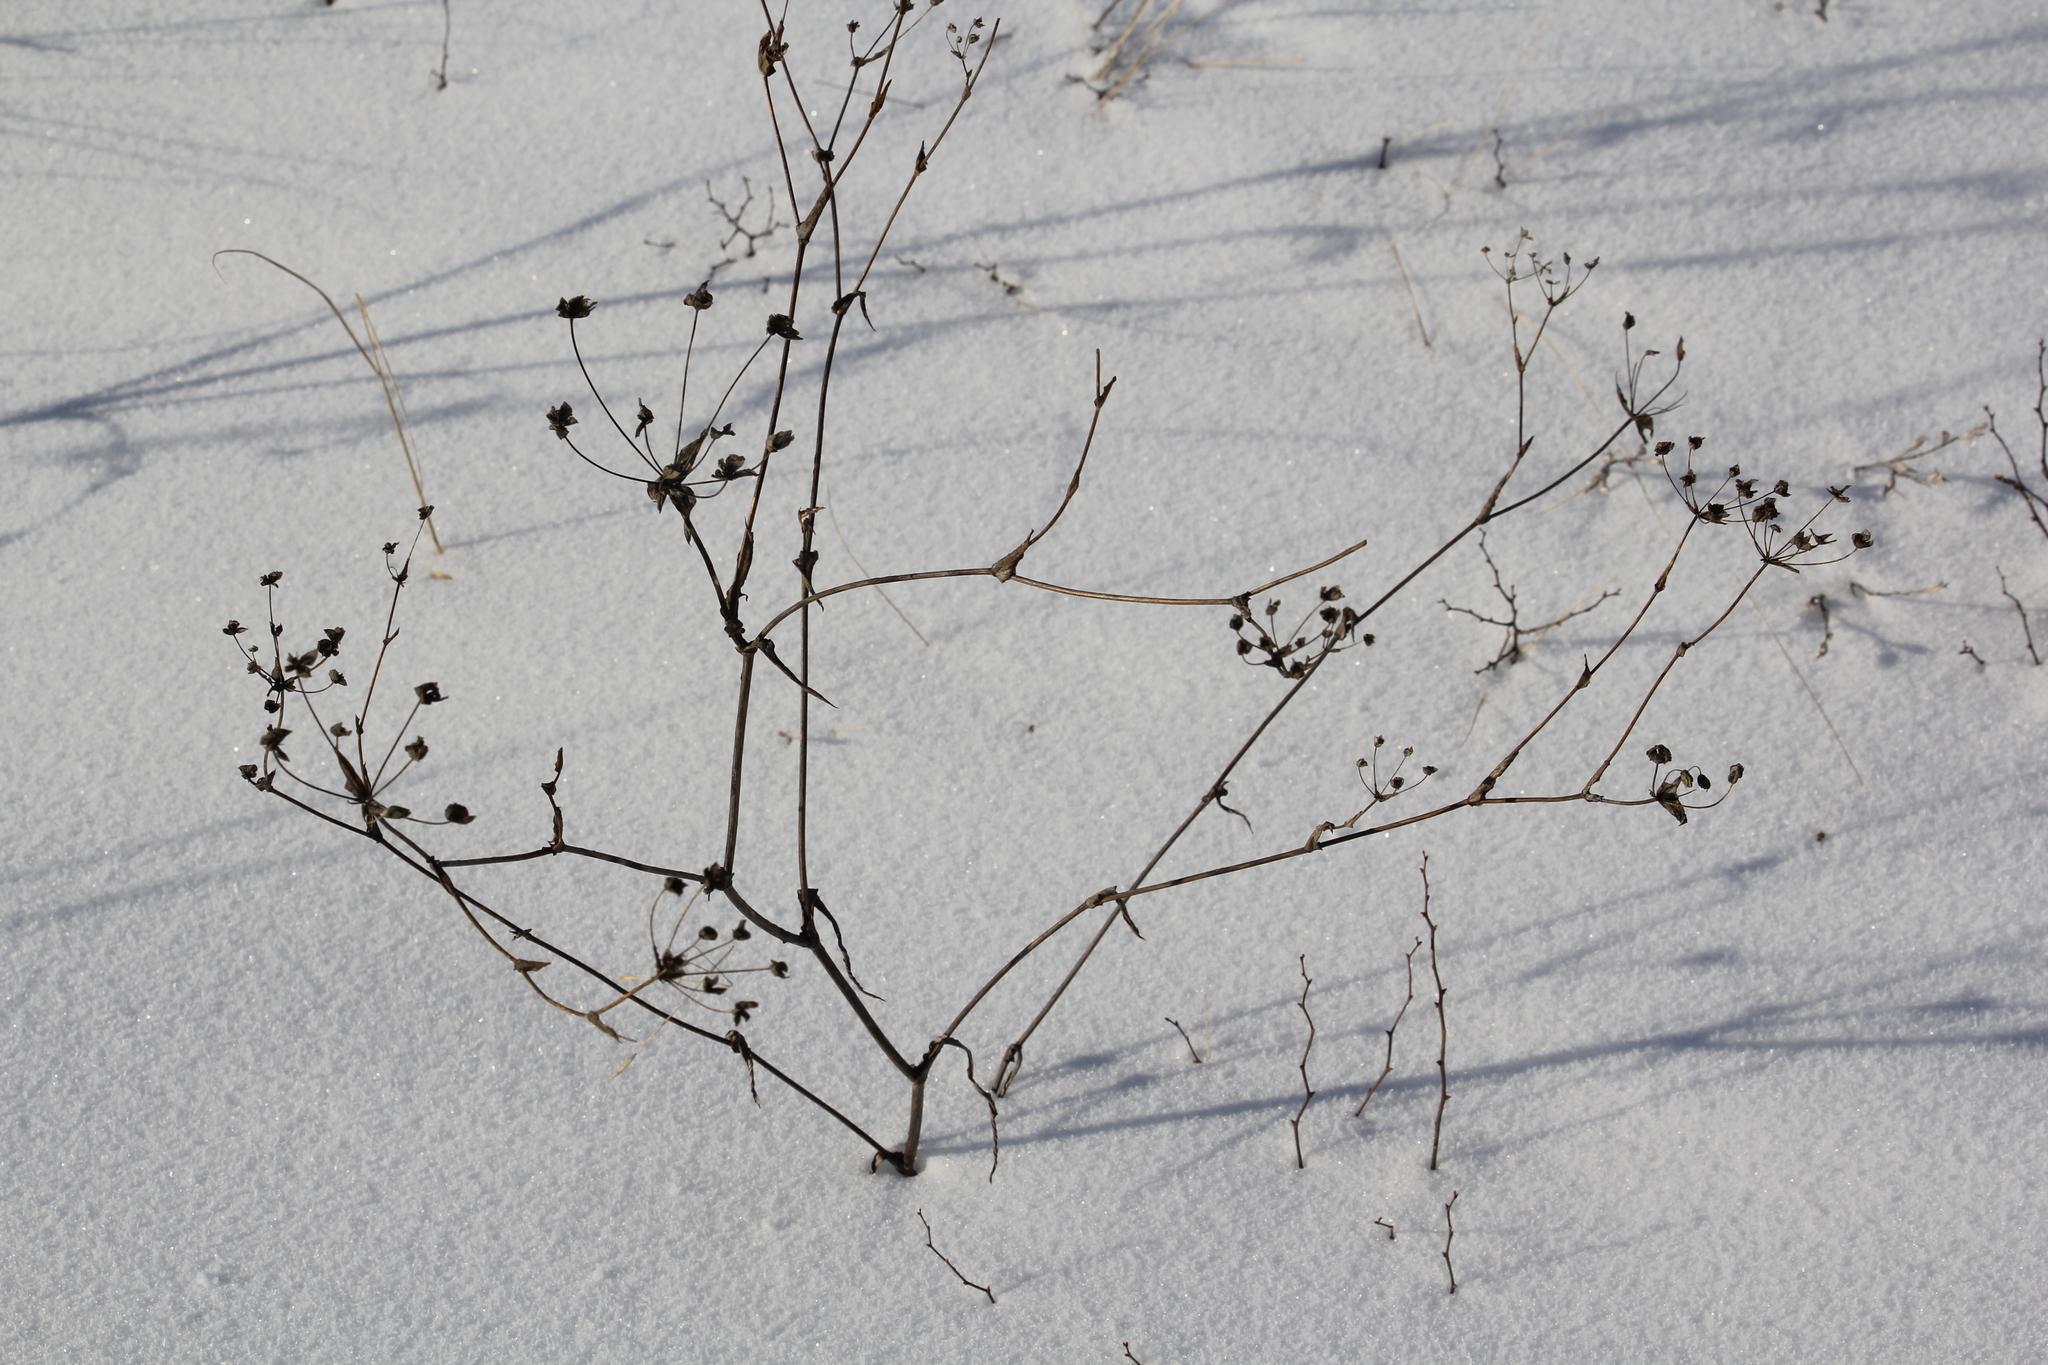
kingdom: Plantae
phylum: Tracheophyta
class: Magnoliopsida
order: Apiales
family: Apiaceae
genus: Bupleurum
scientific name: Bupleurum multinerve
